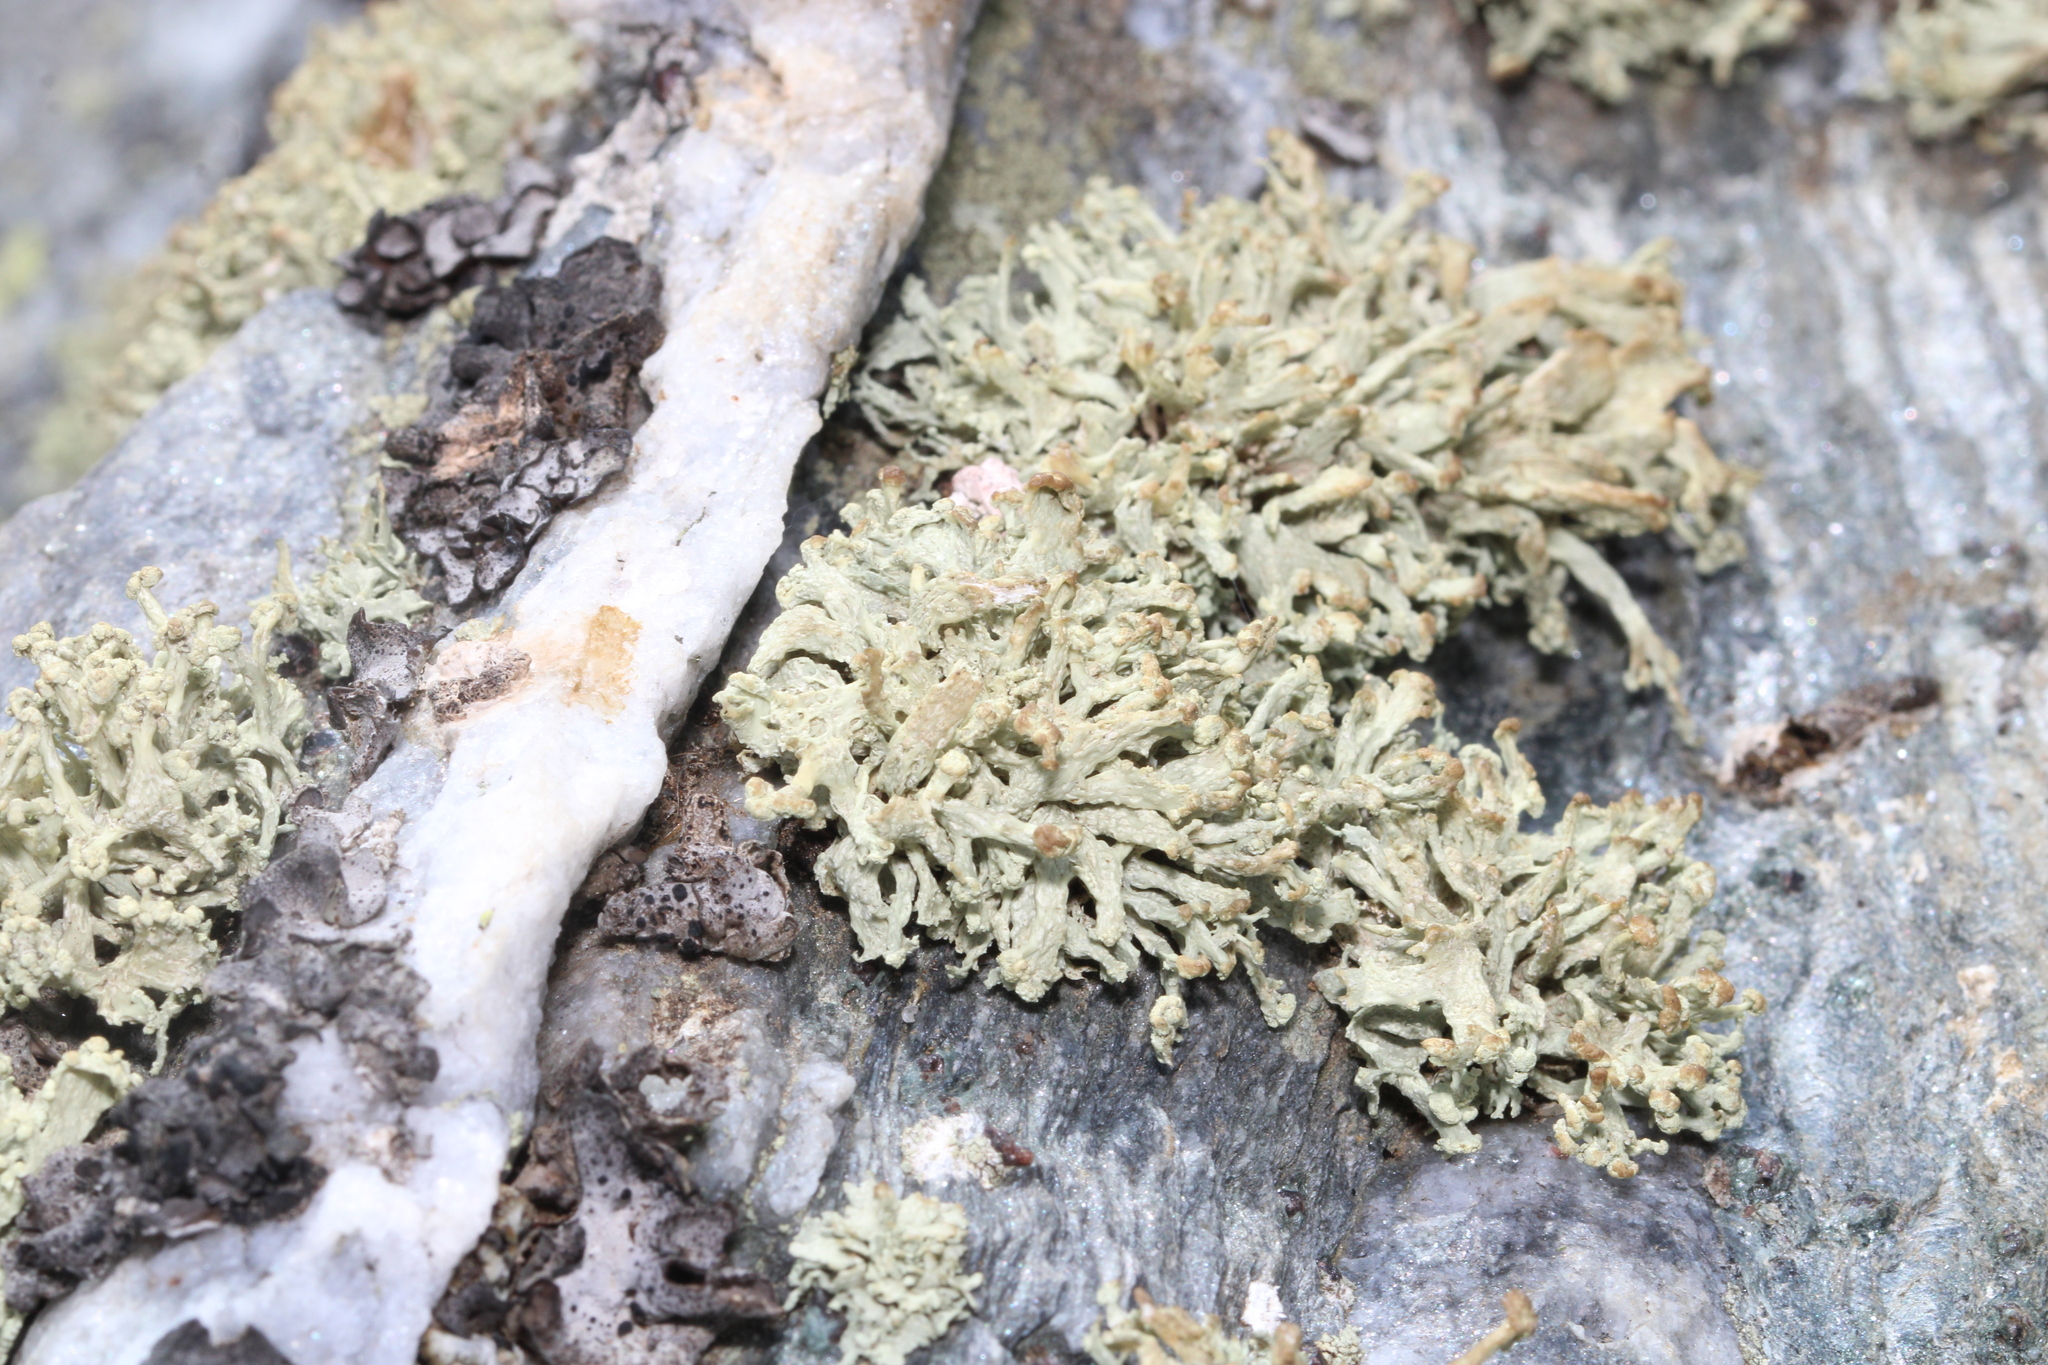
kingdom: Fungi
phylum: Ascomycota
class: Lecanoromycetes
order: Lecanorales
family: Ramalinaceae
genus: Ramalina
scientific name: Ramalina capitata
